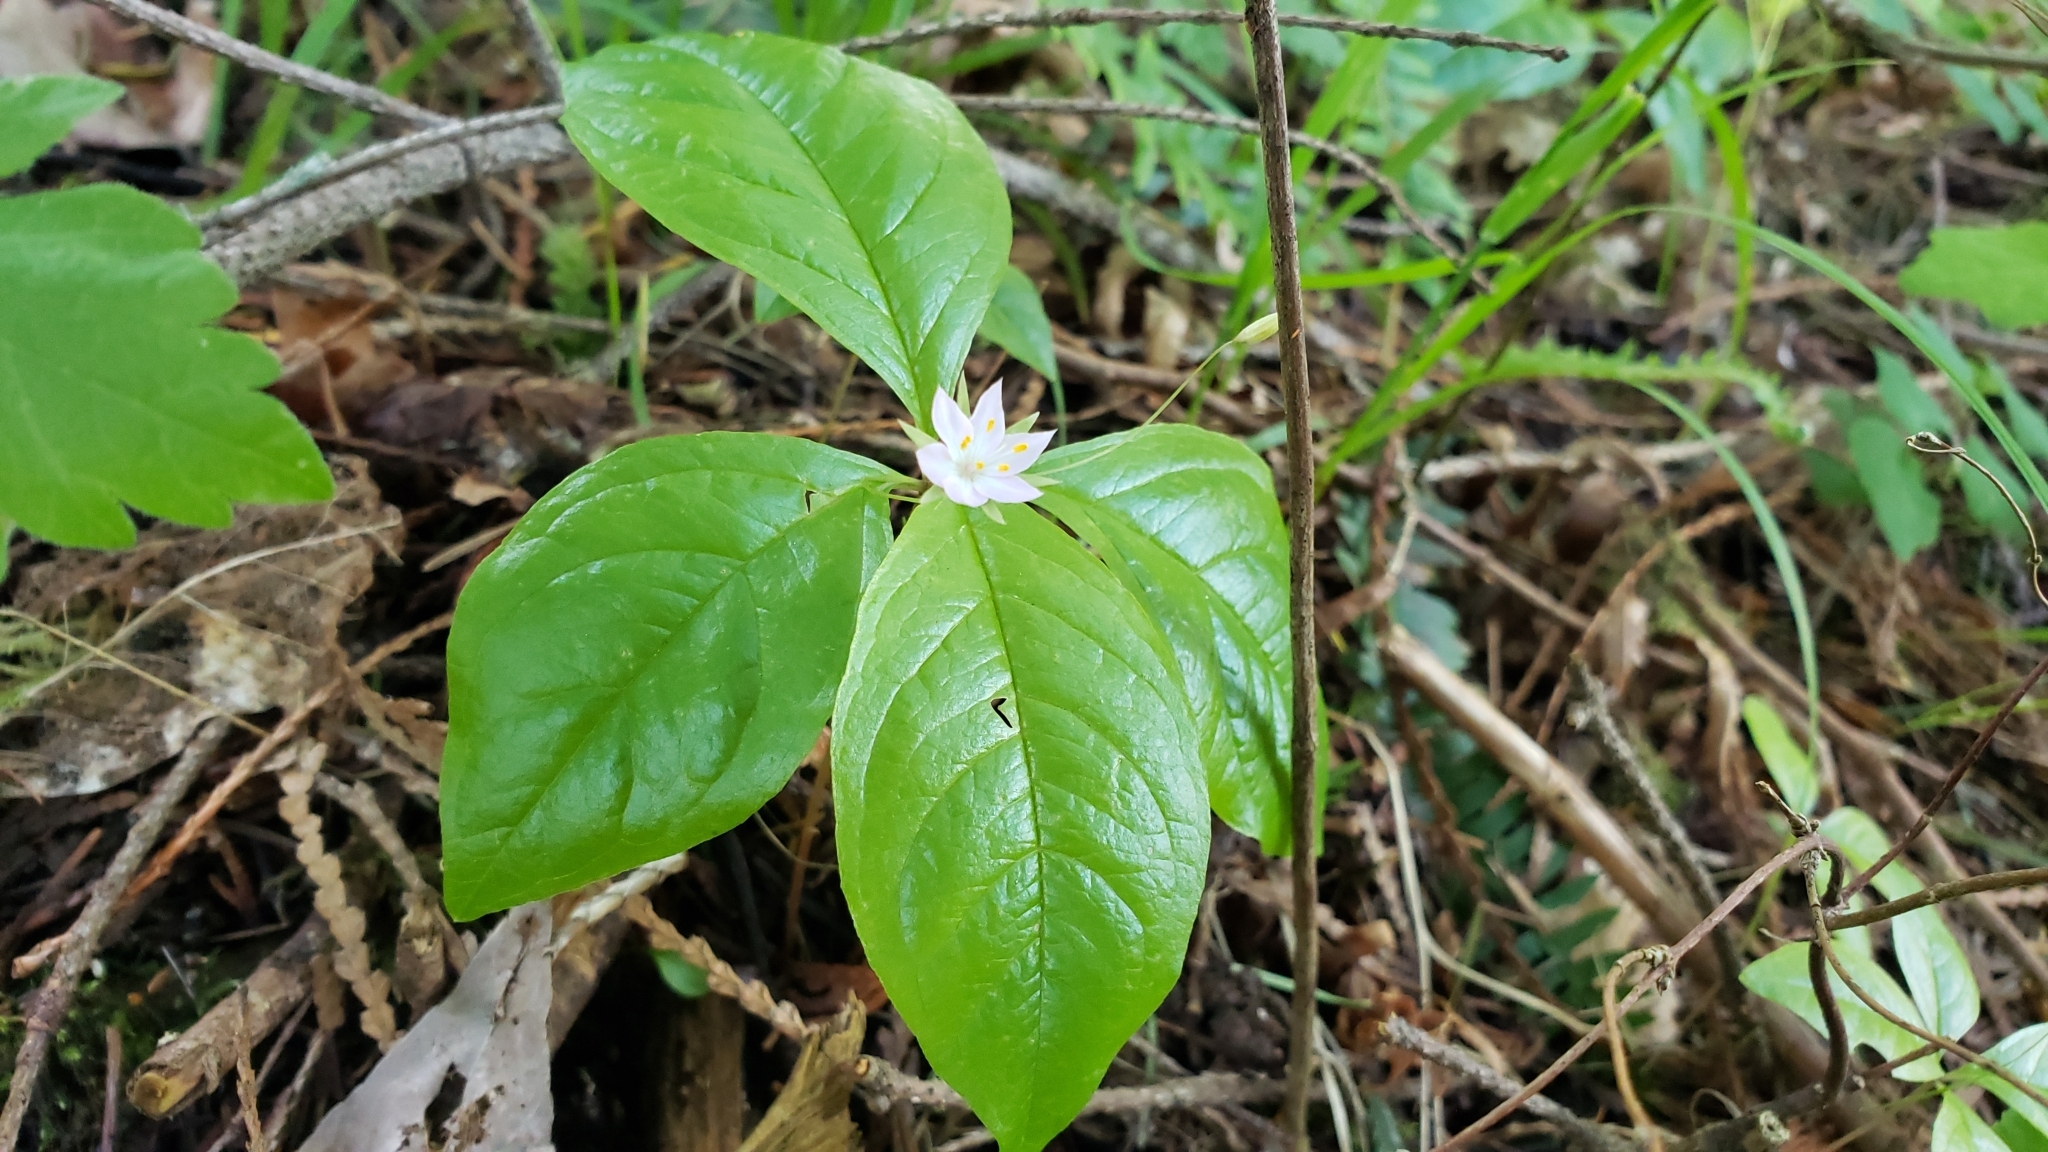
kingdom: Plantae
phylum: Tracheophyta
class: Magnoliopsida
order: Ericales
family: Primulaceae
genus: Lysimachia
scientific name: Lysimachia latifolia
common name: Pacific starflower
